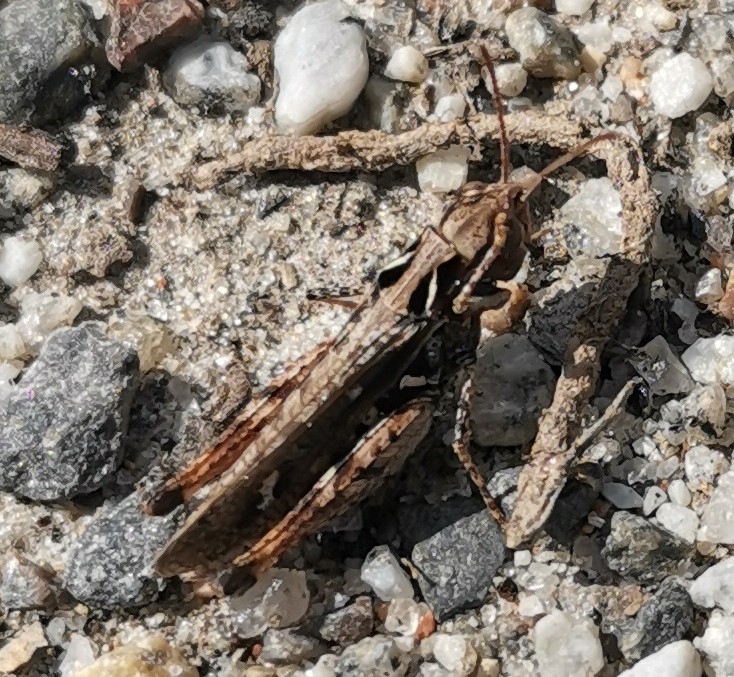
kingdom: Animalia
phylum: Arthropoda
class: Insecta
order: Orthoptera
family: Acrididae
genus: Myrmeleotettix
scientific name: Myrmeleotettix maculatus
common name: Mottled grasshopper
